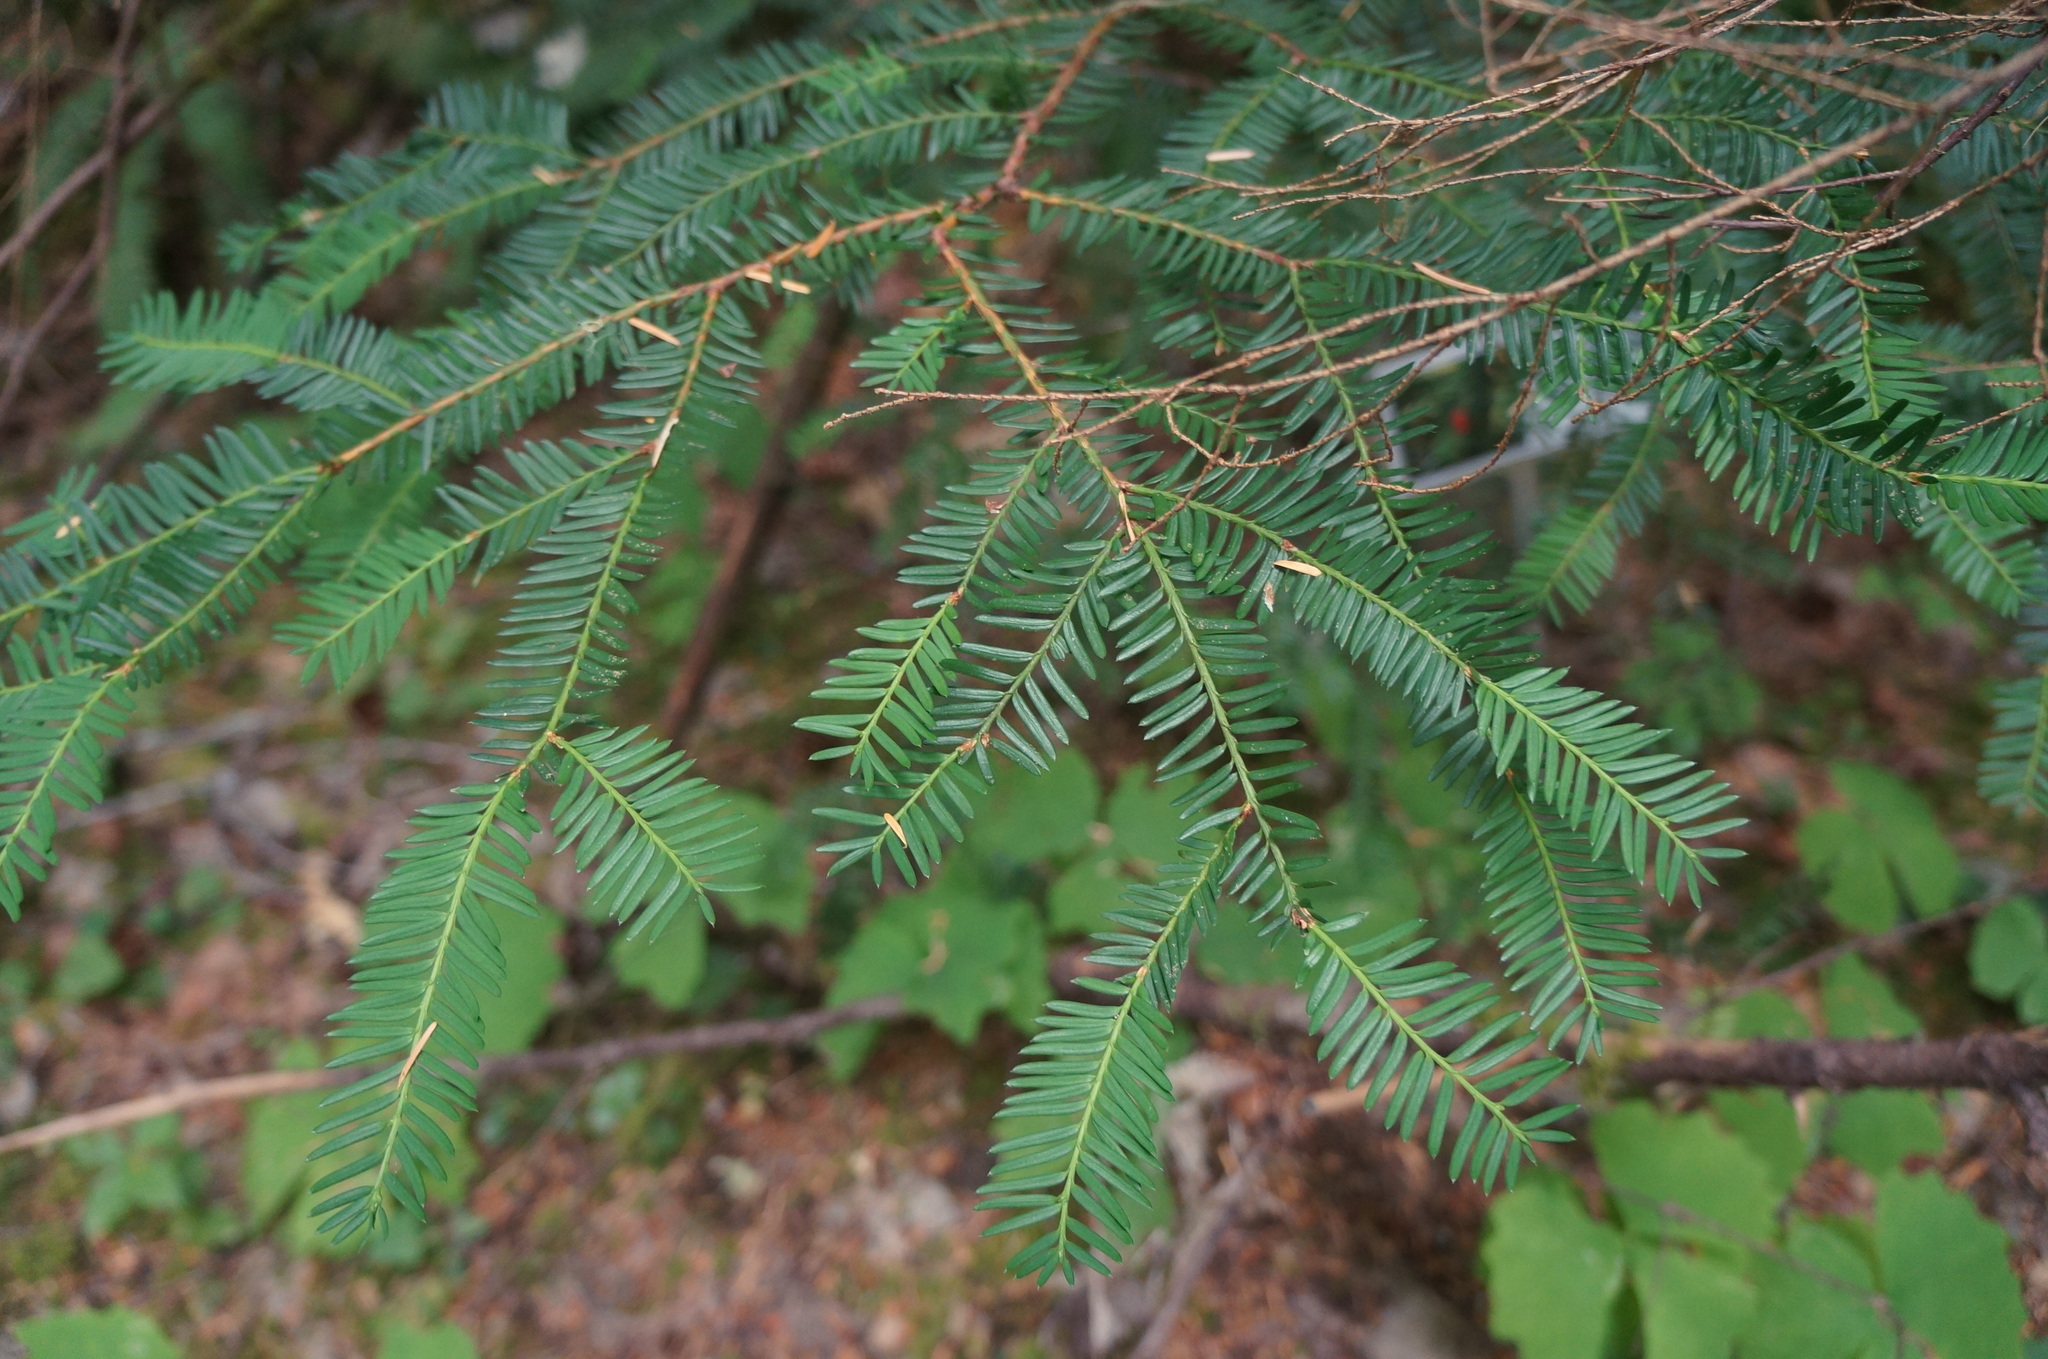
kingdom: Plantae
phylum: Tracheophyta
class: Pinopsida
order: Pinales
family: Taxaceae
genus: Taxus
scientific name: Taxus brevifolia
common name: Pacific yew
